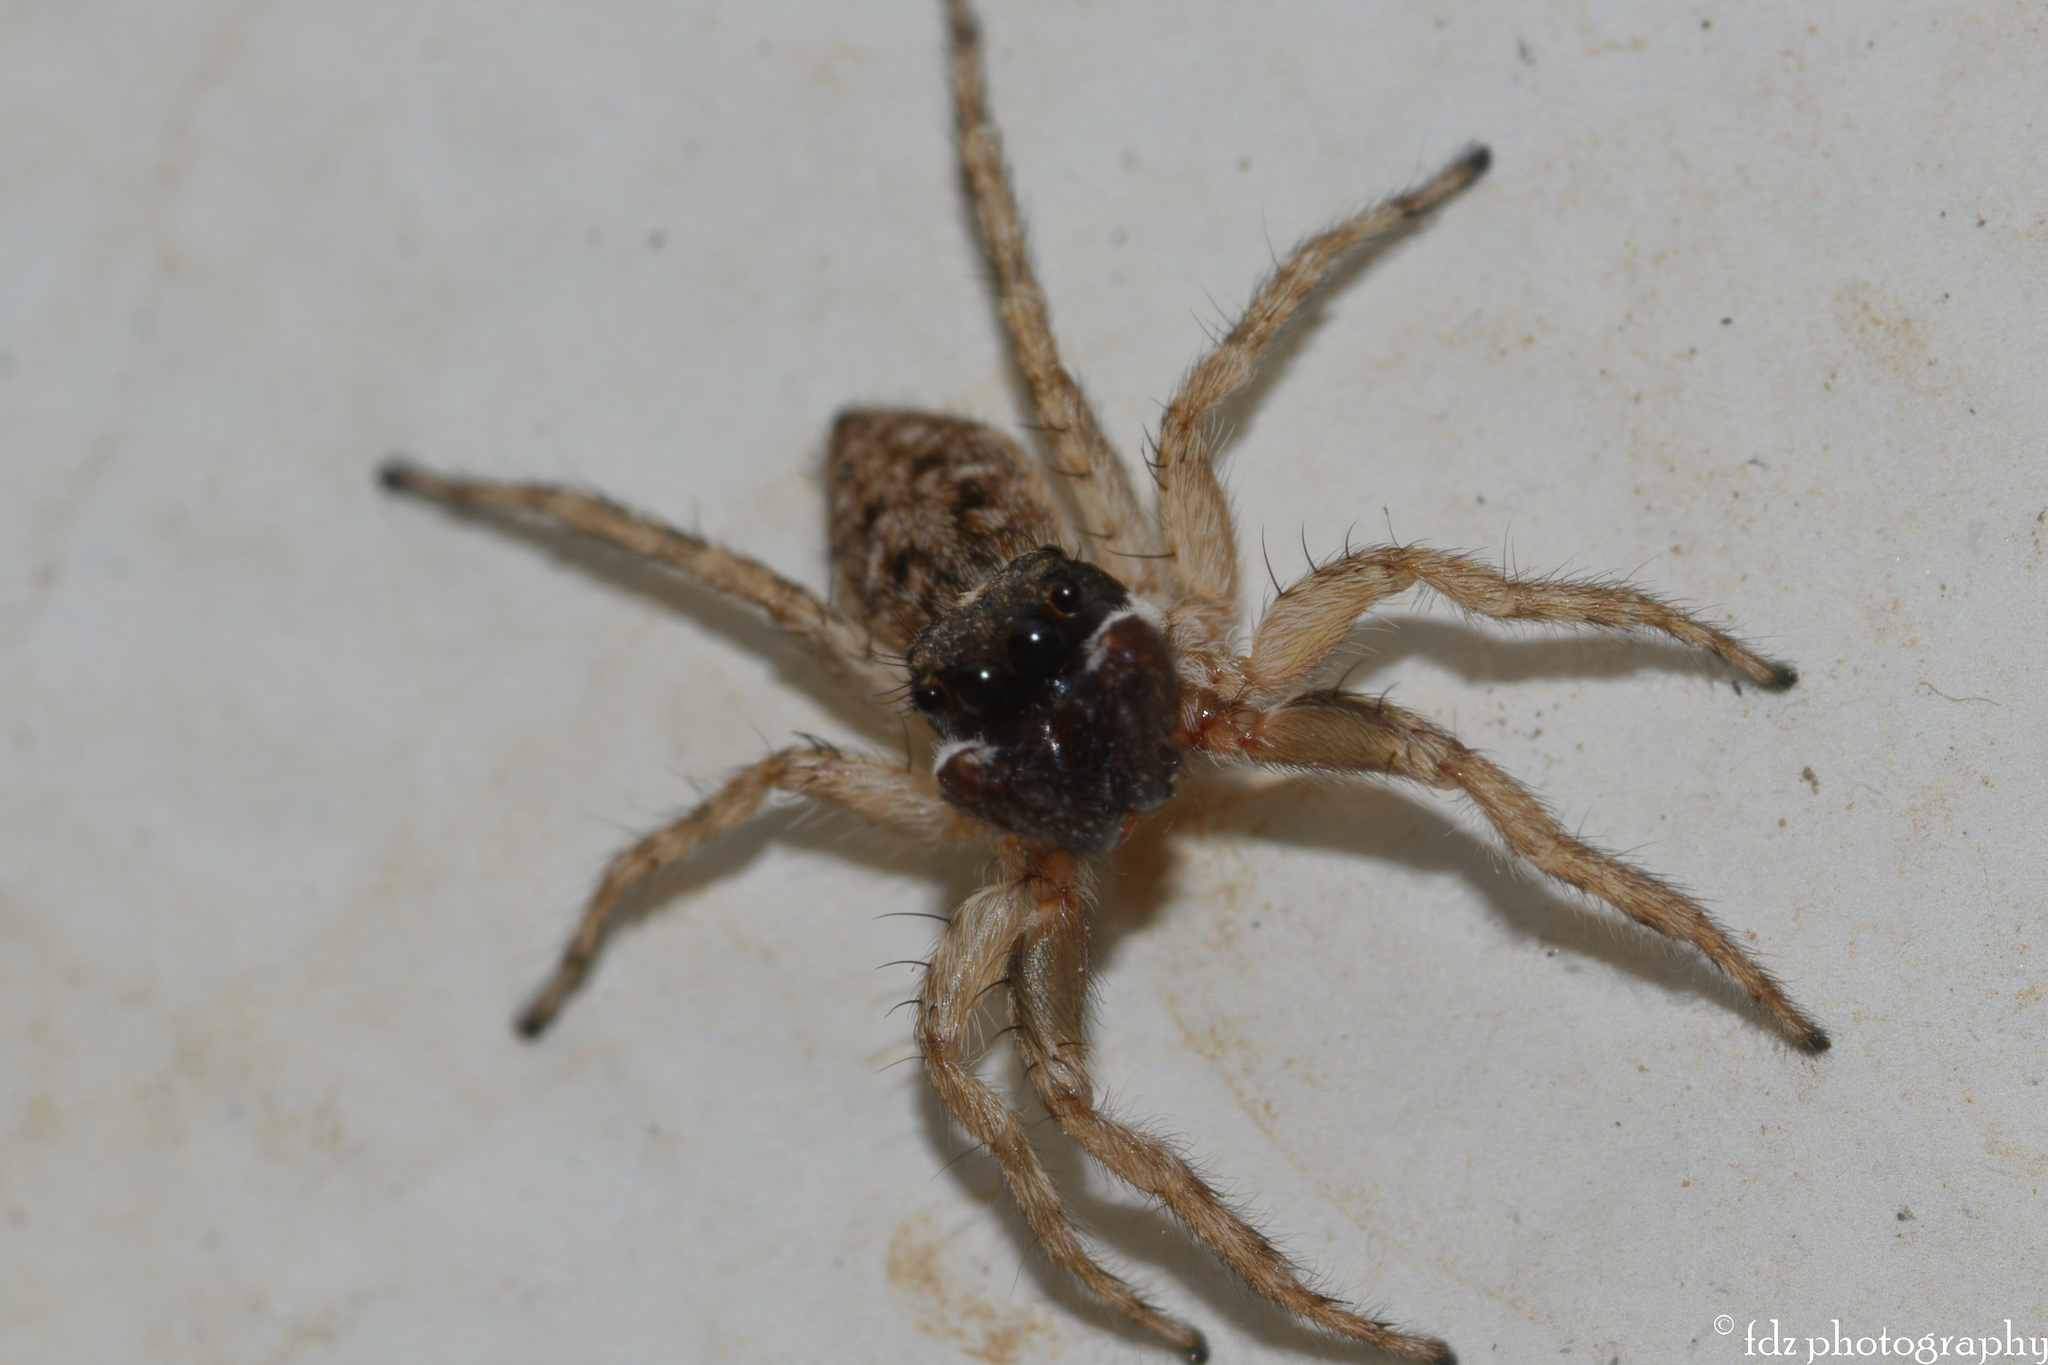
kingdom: Animalia
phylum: Arthropoda
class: Arachnida
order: Araneae
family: Salticidae
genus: Menemerus
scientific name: Menemerus semilimbatus
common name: Jumping spider
